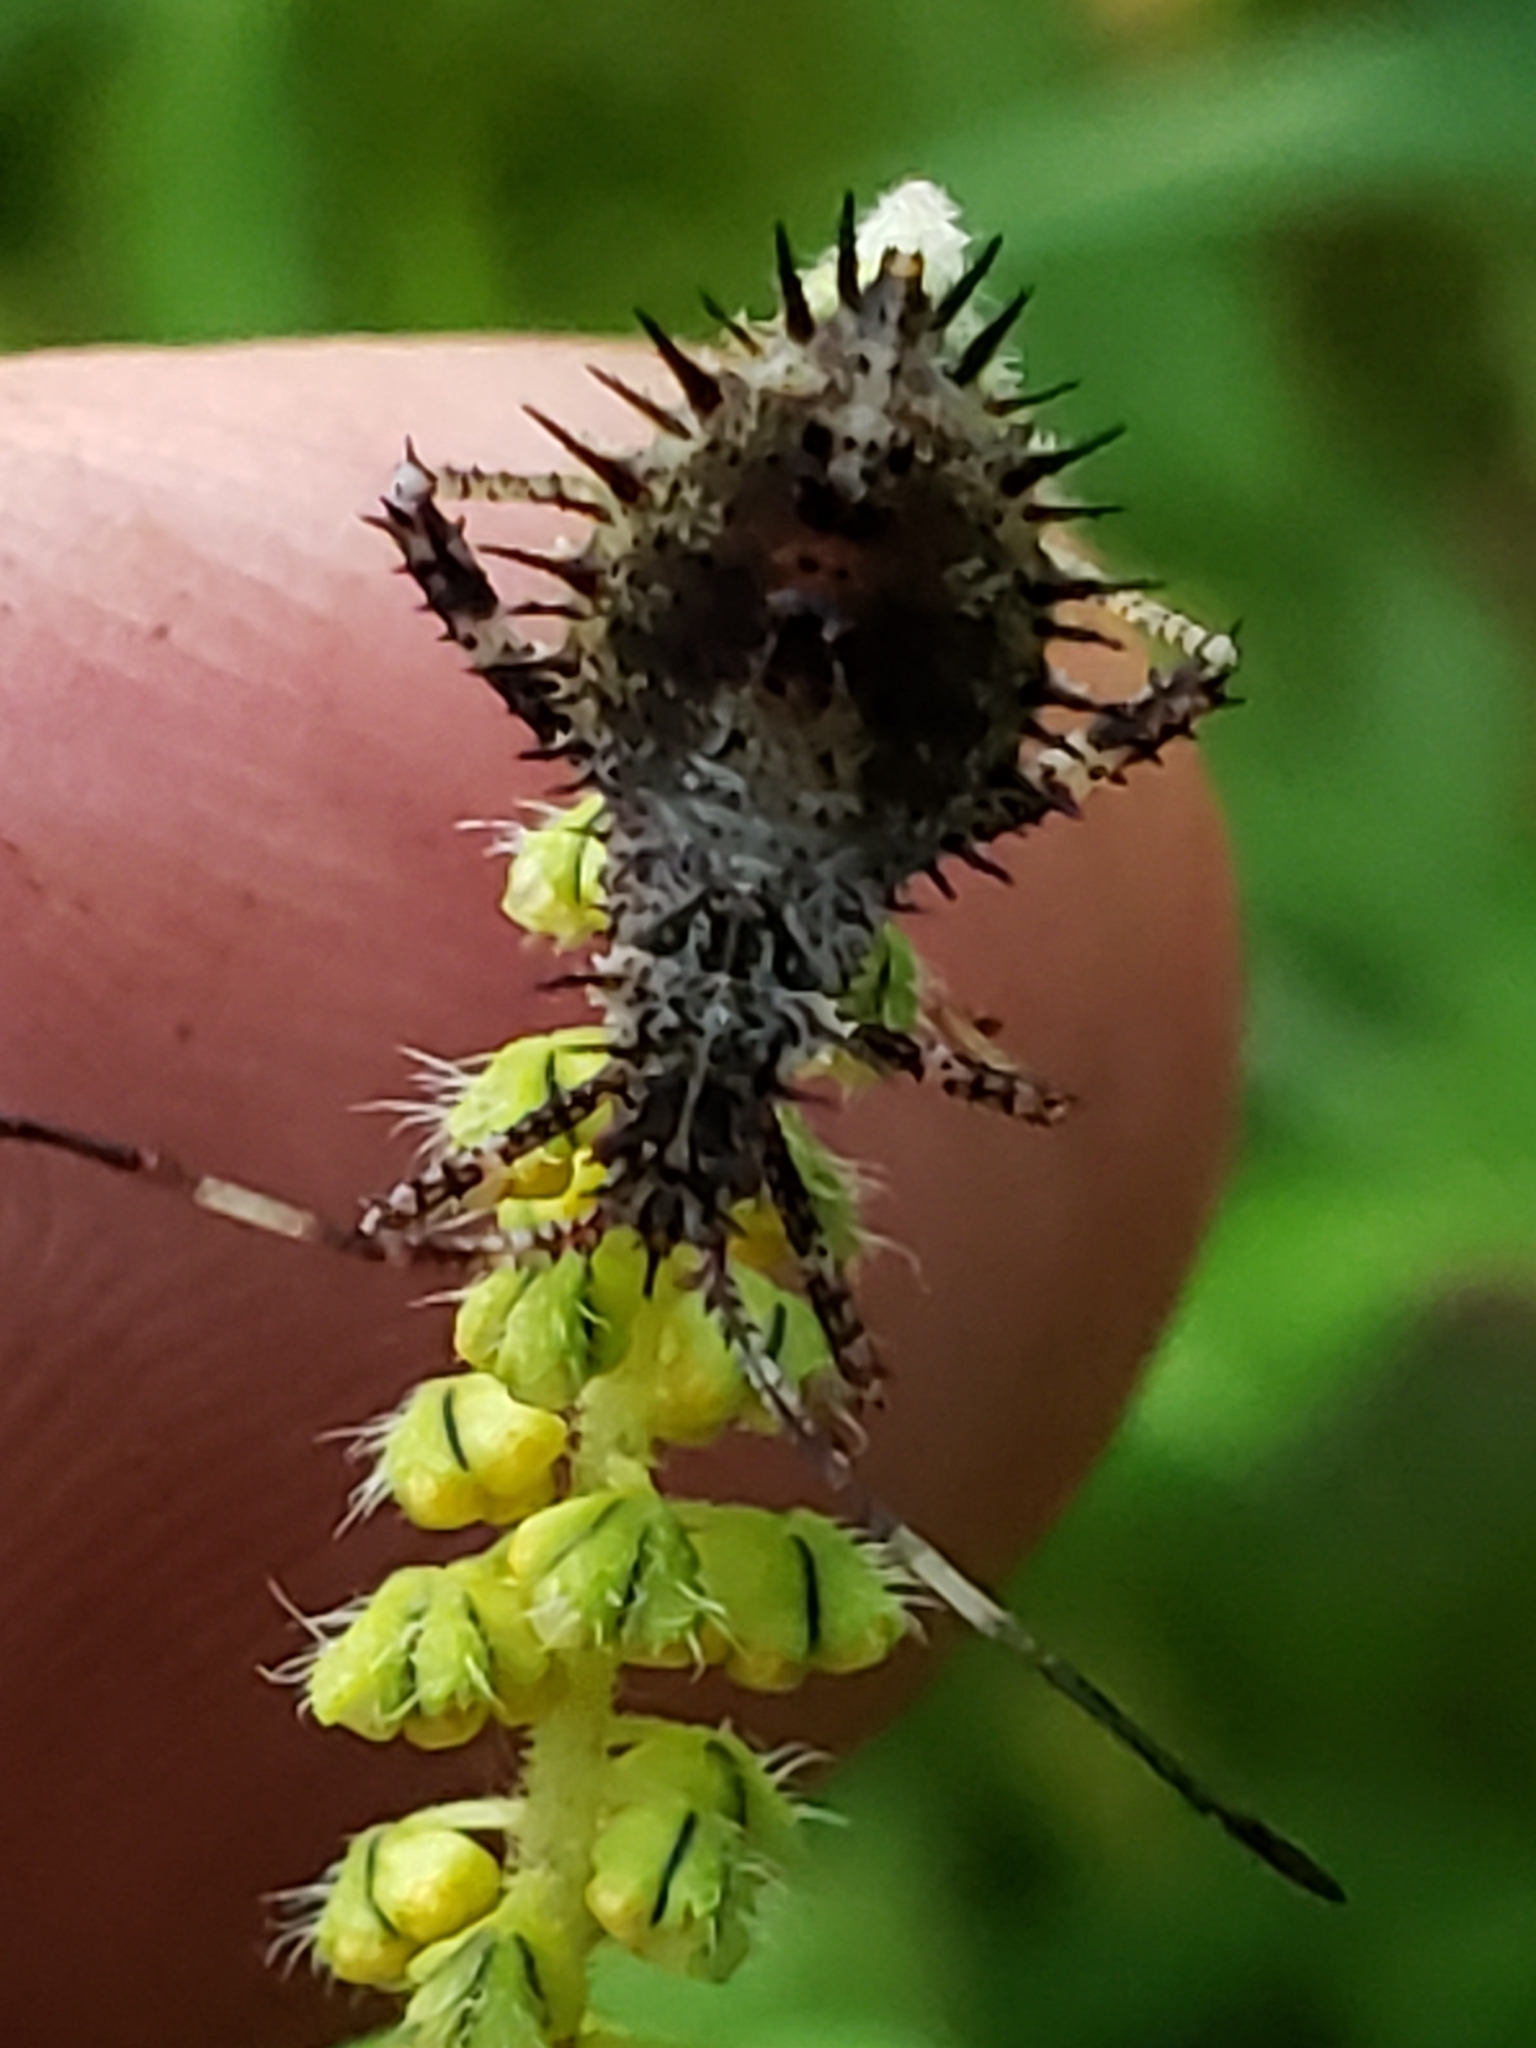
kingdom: Animalia
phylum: Arthropoda
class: Insecta
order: Hemiptera
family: Coreidae
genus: Euthochtha
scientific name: Euthochtha galeator
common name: Helmeted squash bug
